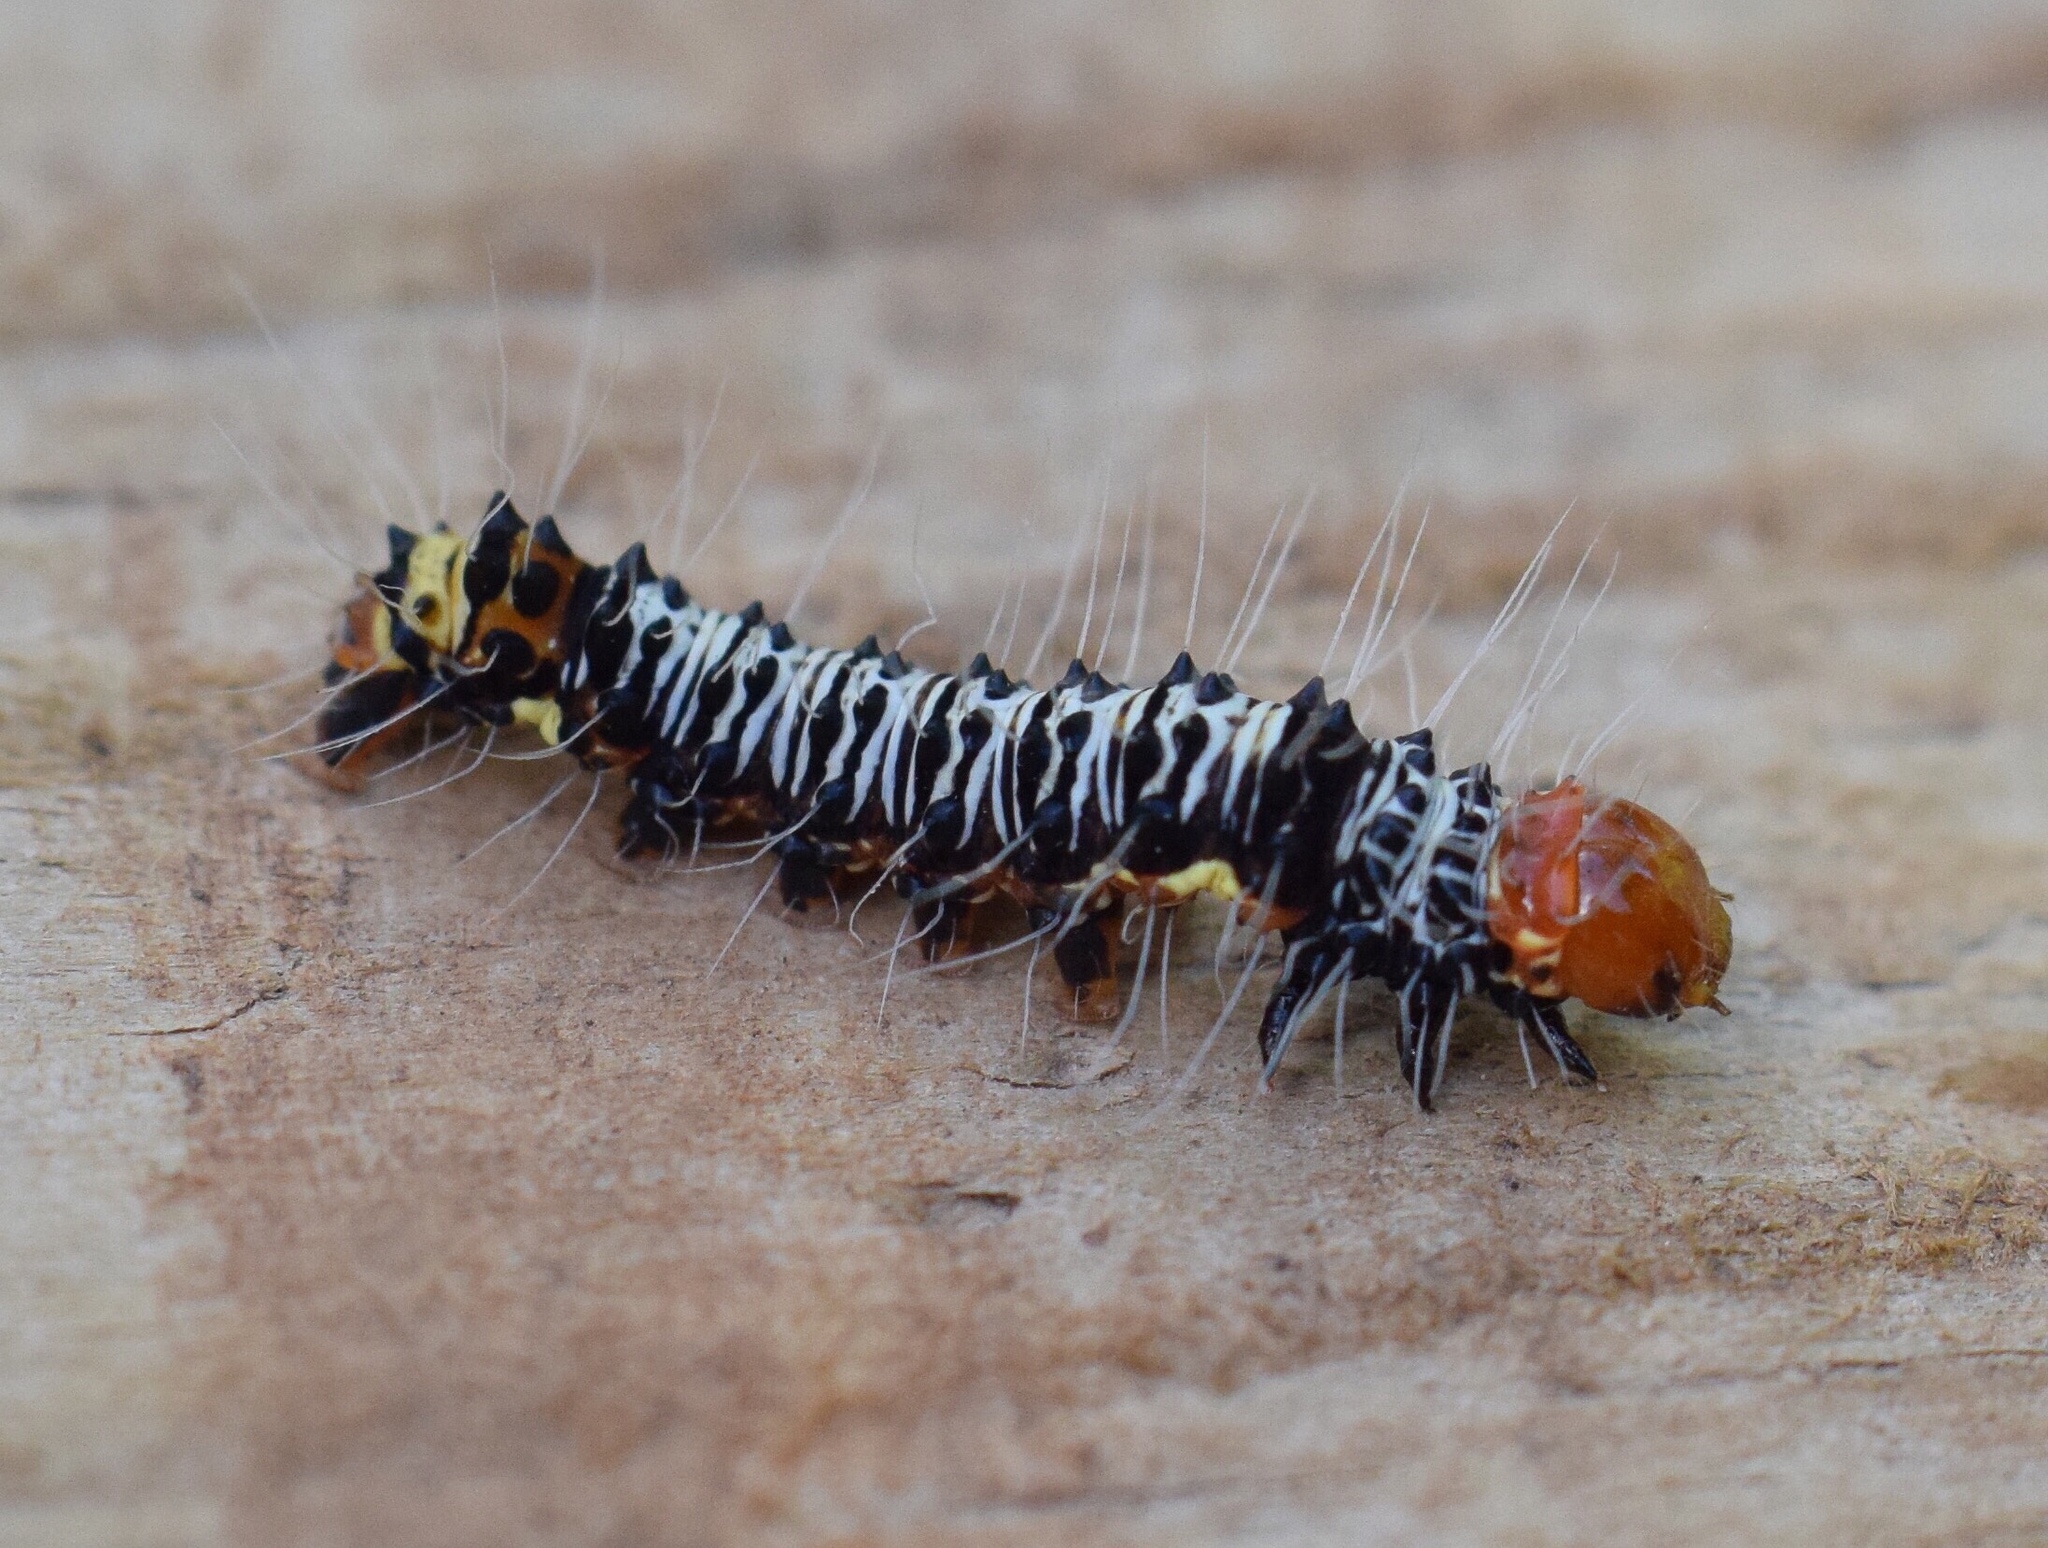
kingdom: Animalia
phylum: Arthropoda
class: Insecta
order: Lepidoptera
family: Erebidae
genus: Asota
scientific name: Asota speciosa
